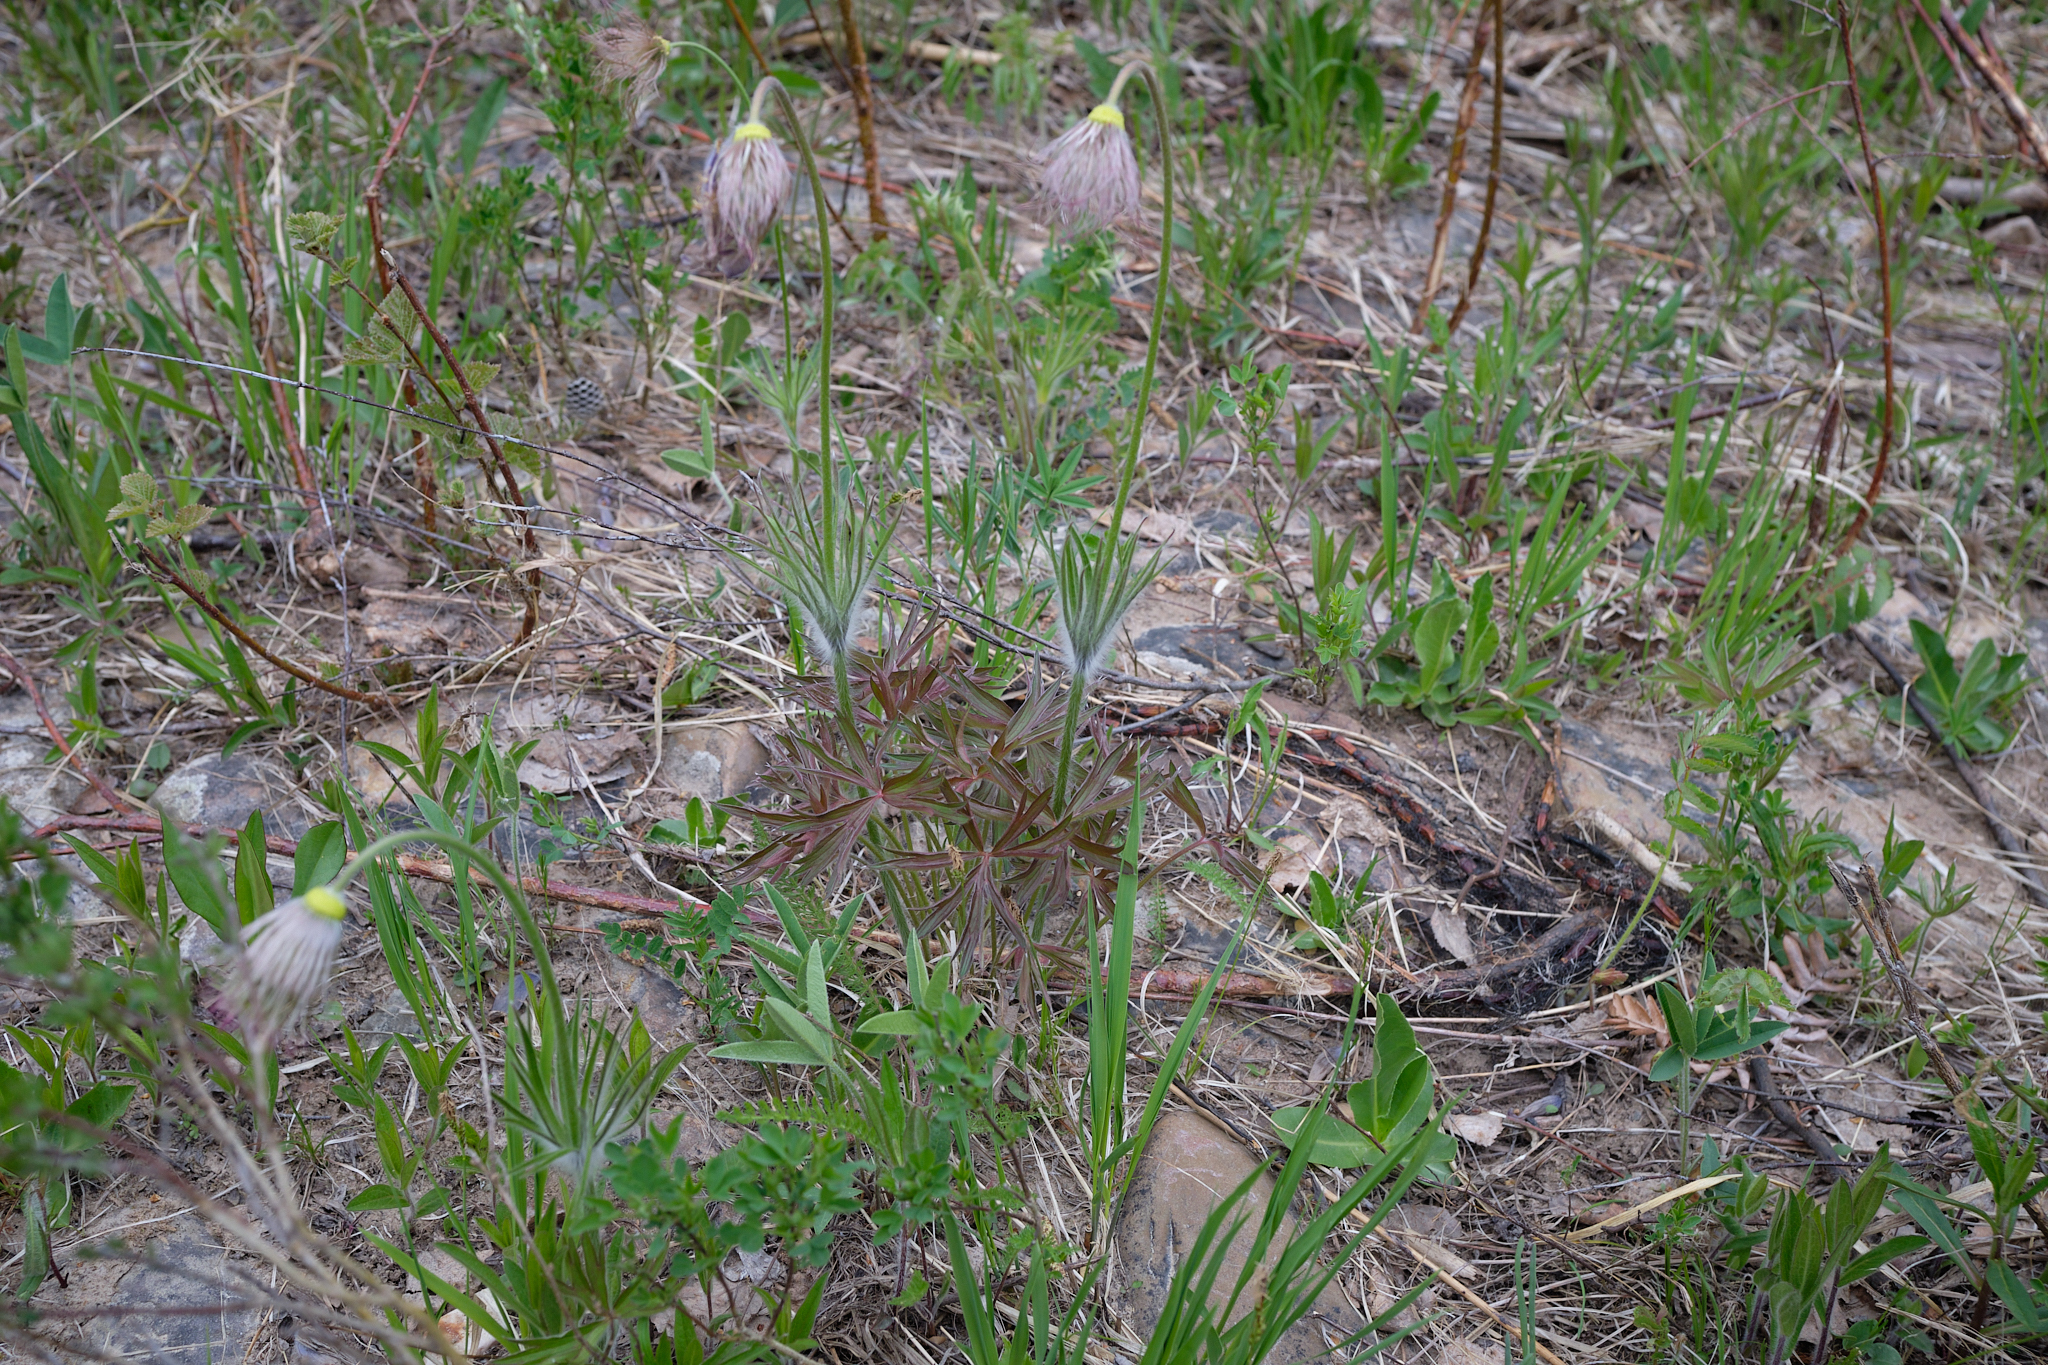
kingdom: Plantae
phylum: Tracheophyta
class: Magnoliopsida
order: Ranunculales
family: Ranunculaceae
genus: Pulsatilla
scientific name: Pulsatilla patens
